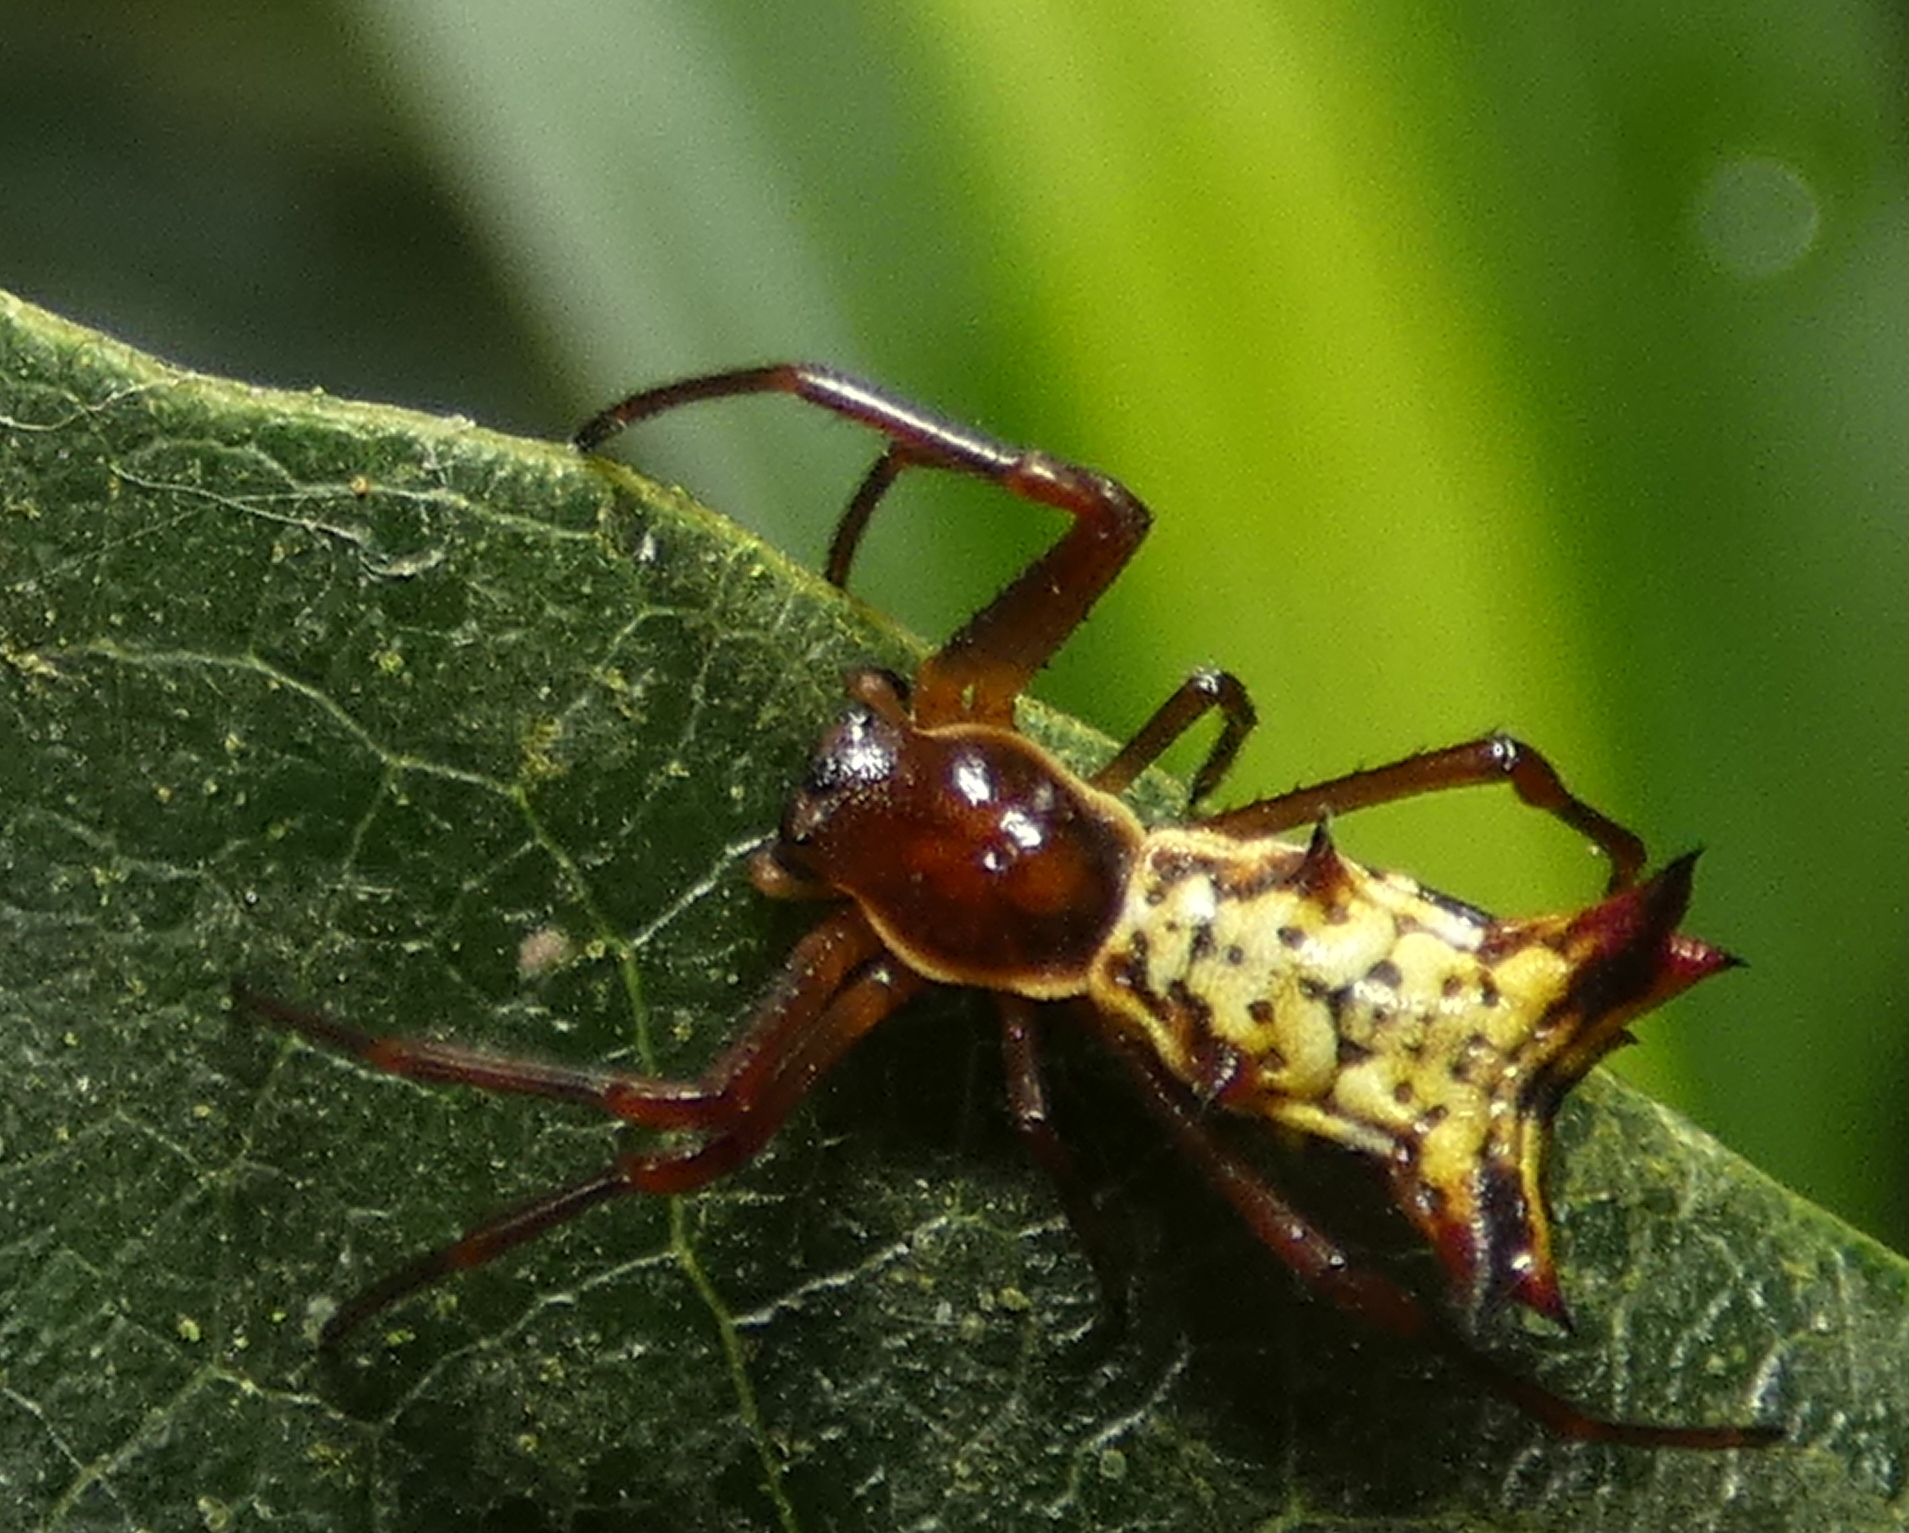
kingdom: Animalia
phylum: Arthropoda
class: Arachnida
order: Araneae
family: Araneidae
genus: Micrathena
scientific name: Micrathena fissispina
